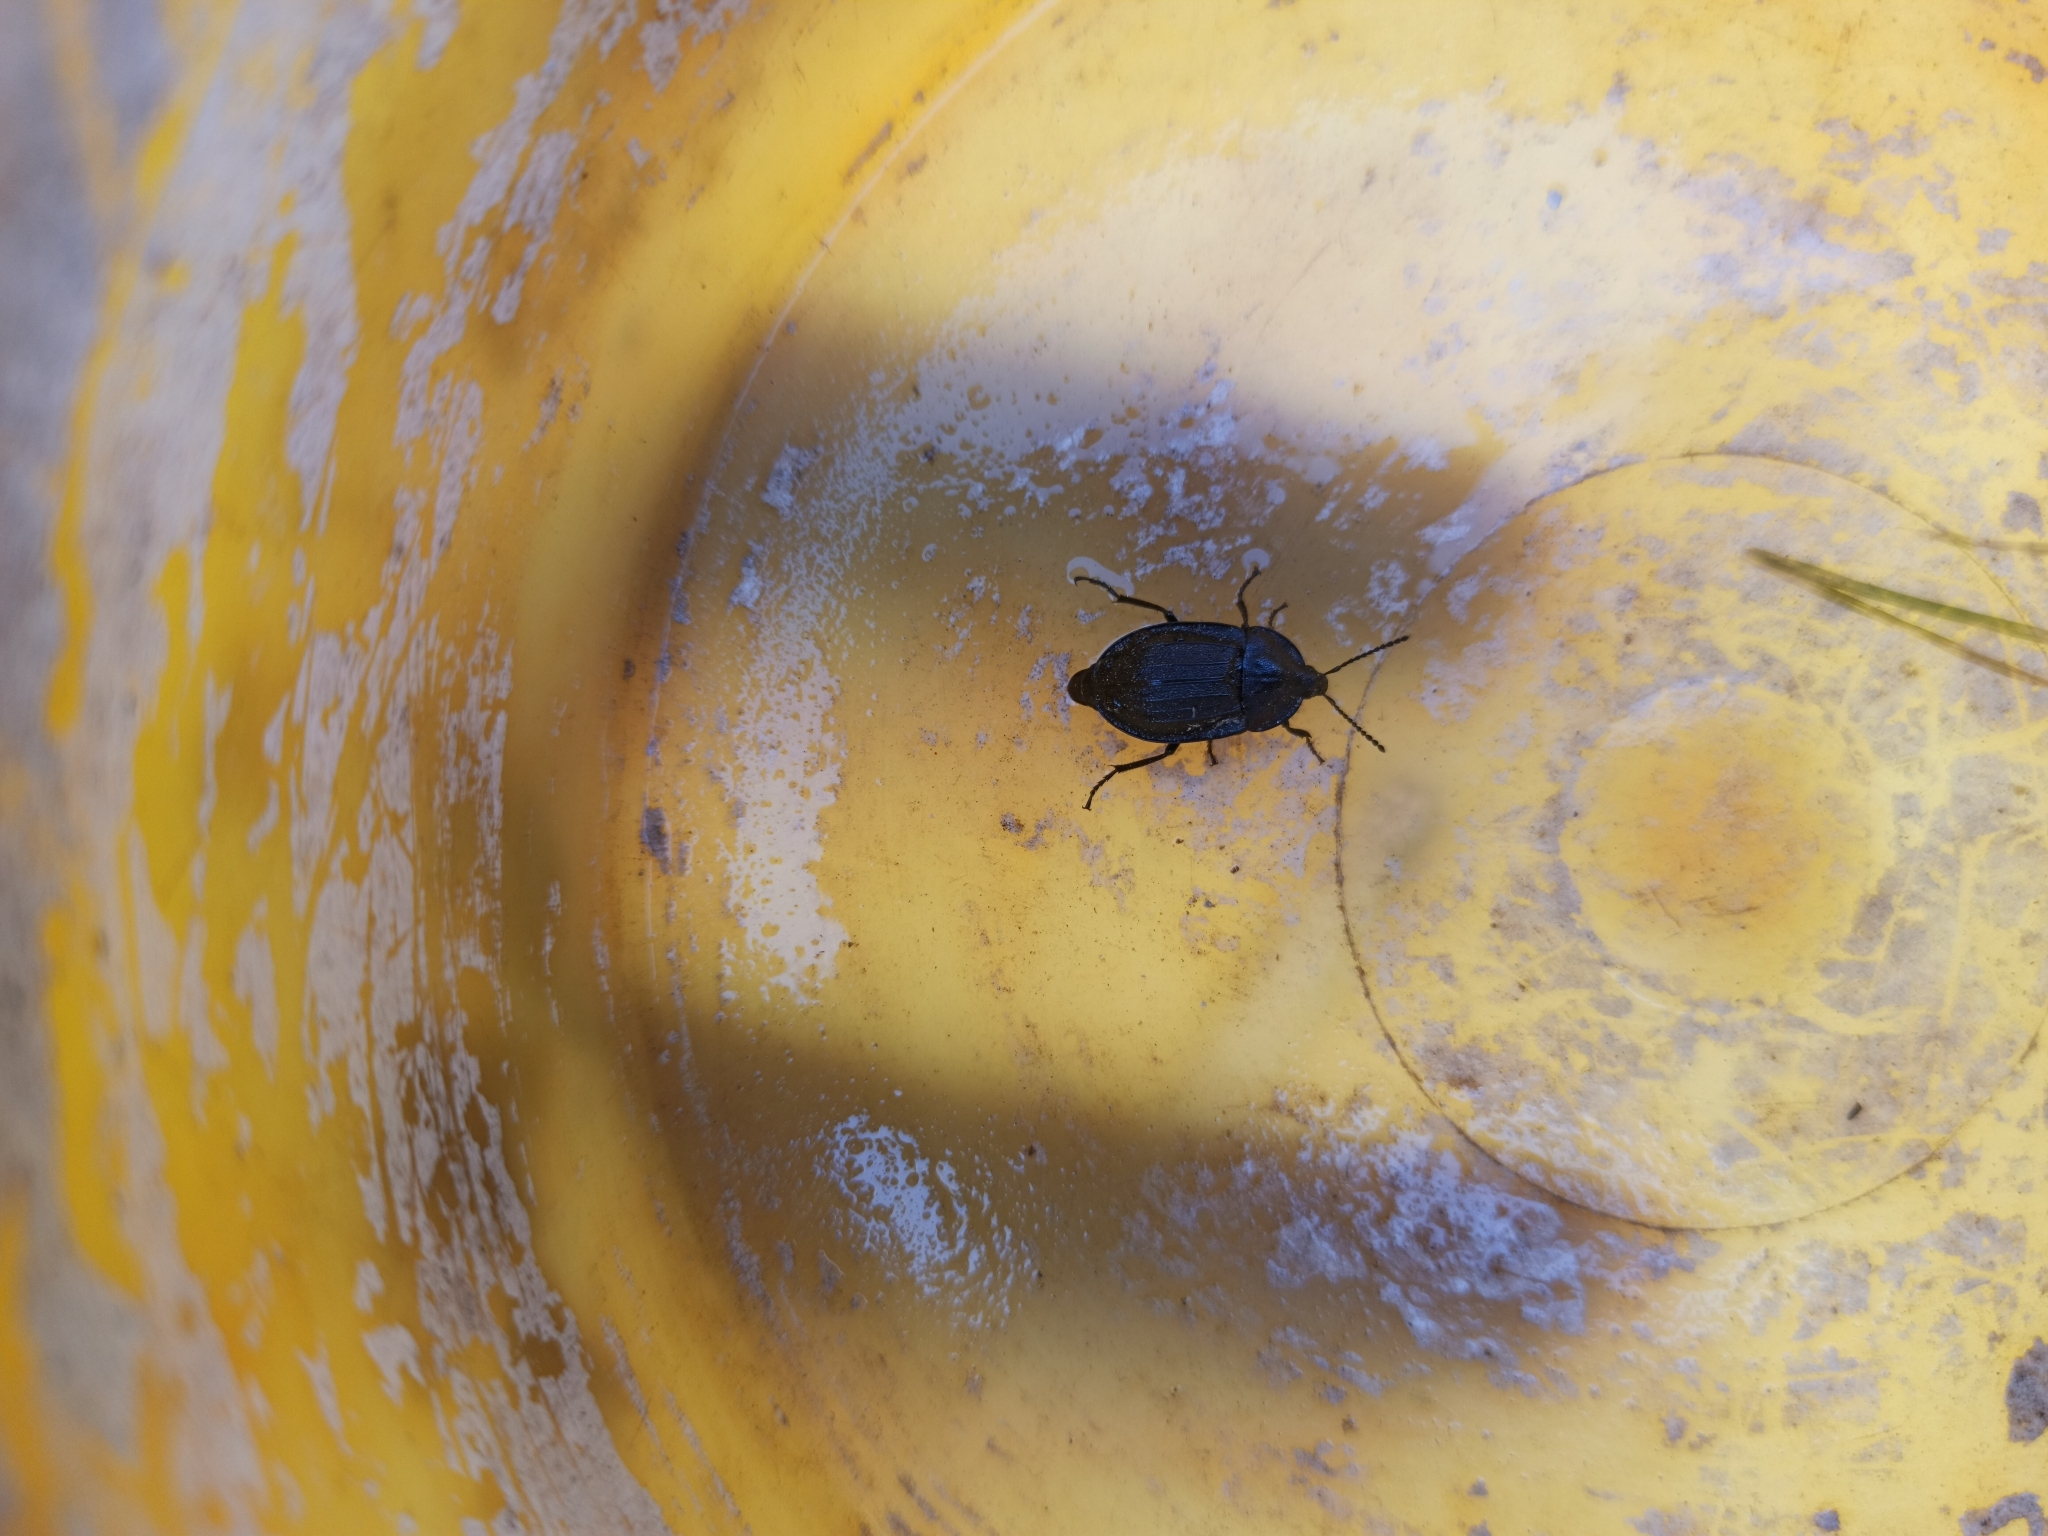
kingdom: Animalia
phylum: Arthropoda
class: Insecta
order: Coleoptera
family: Staphylinidae
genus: Silpha
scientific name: Silpha atrata
